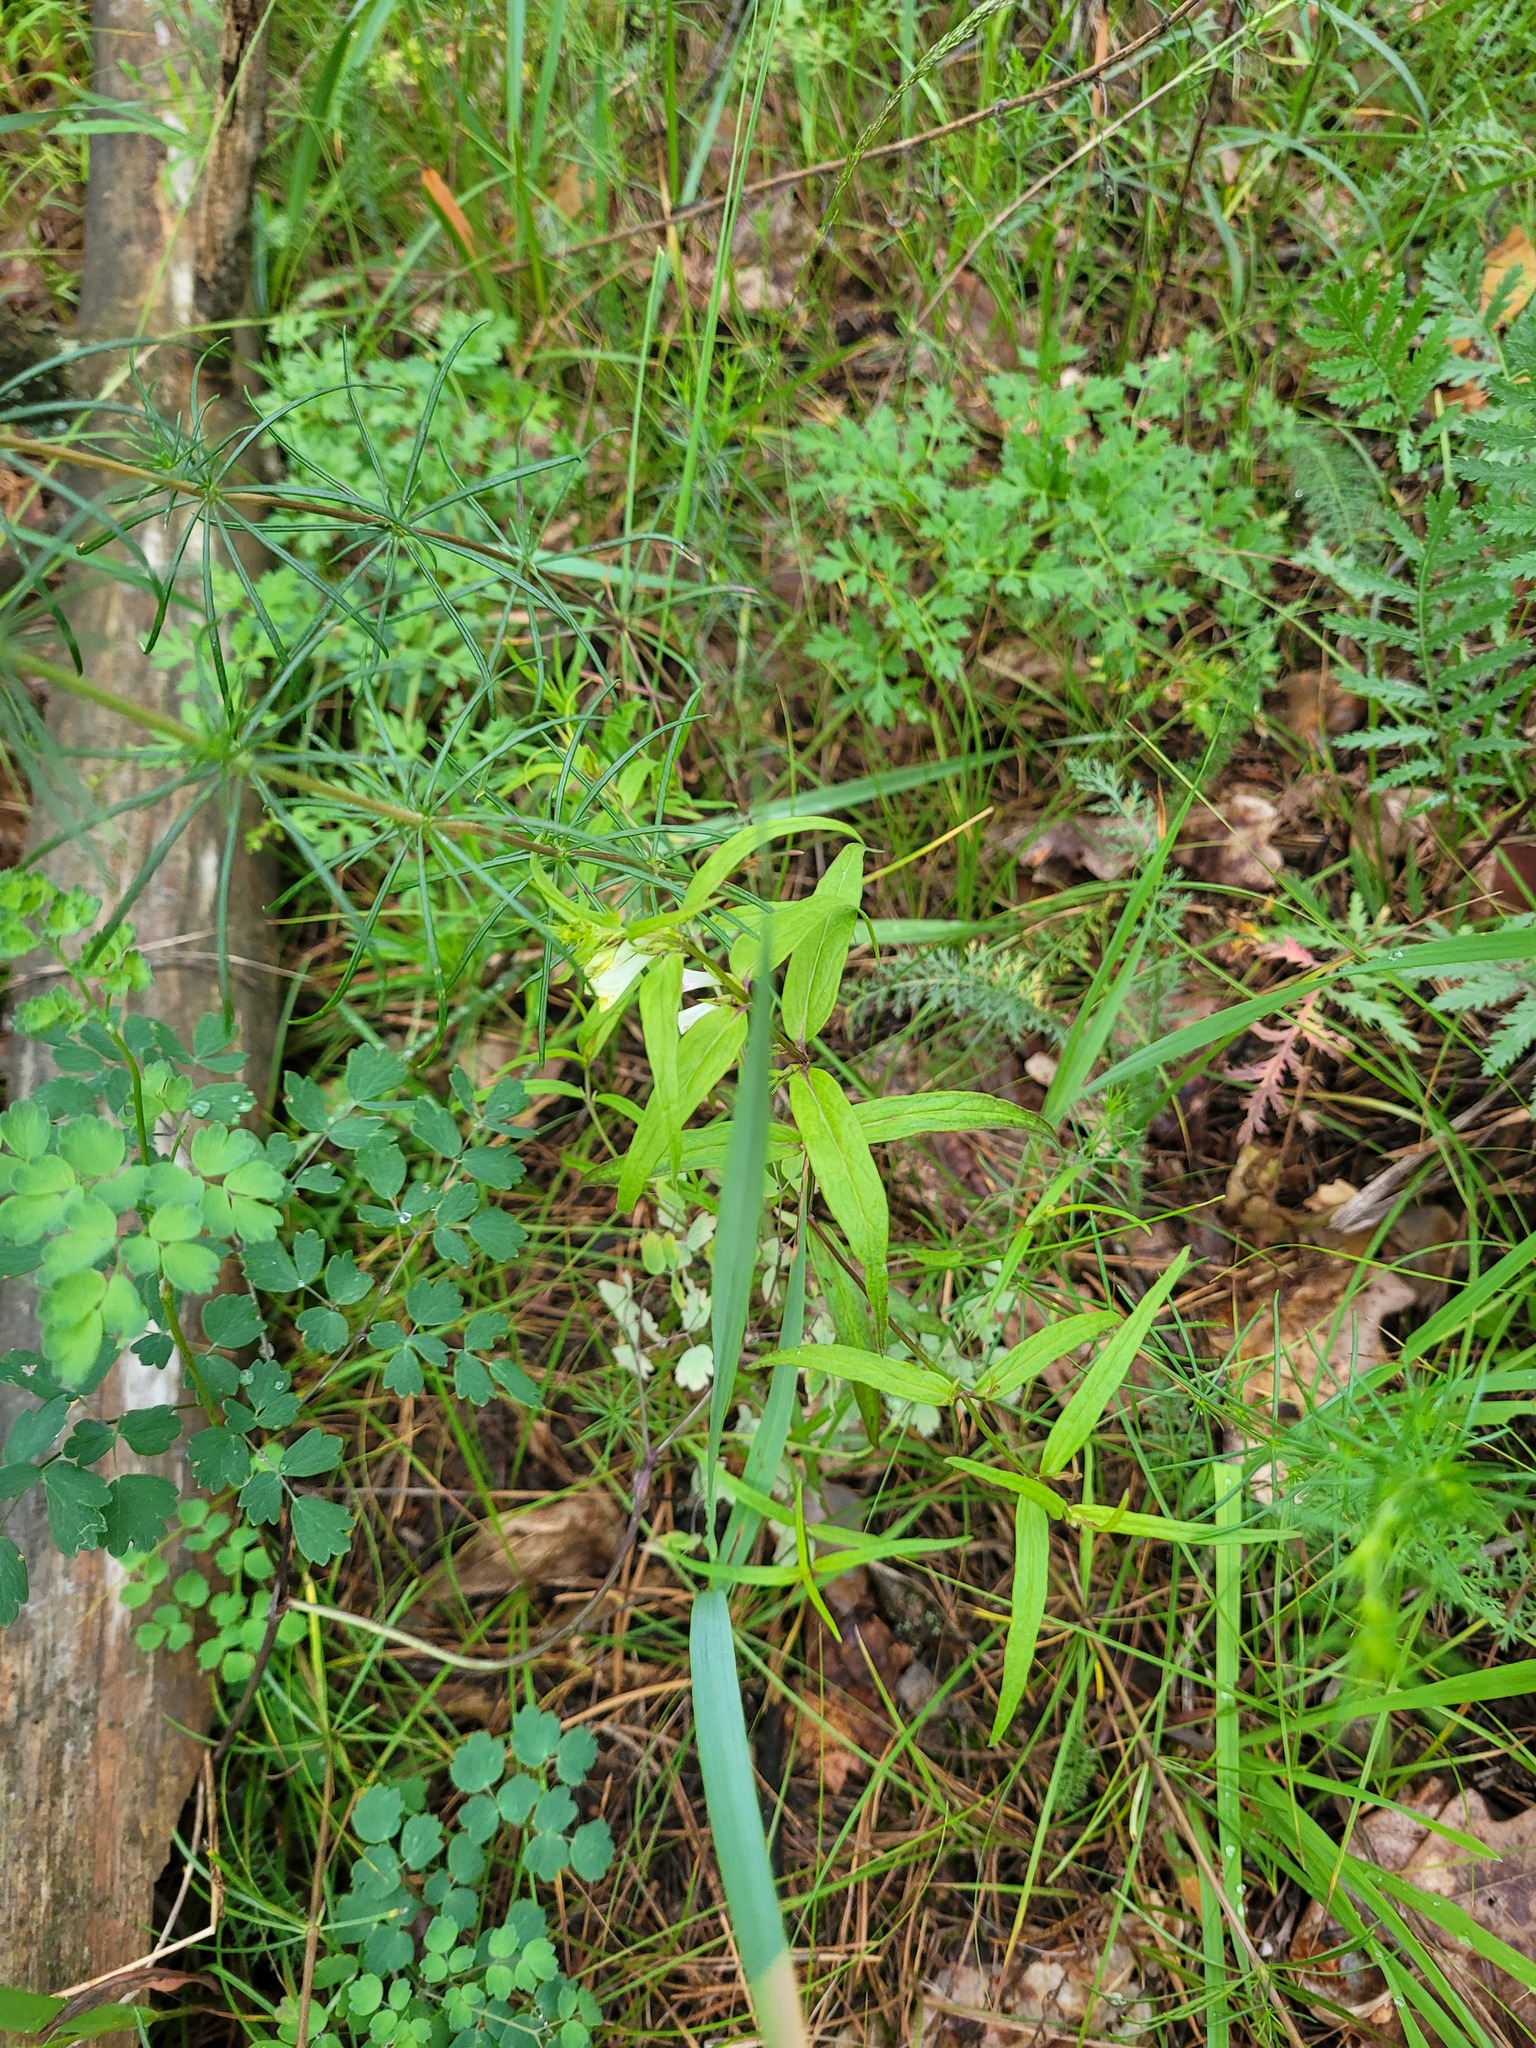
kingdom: Plantae
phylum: Tracheophyta
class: Magnoliopsida
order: Lamiales
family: Orobanchaceae
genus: Melampyrum
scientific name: Melampyrum pratense
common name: Common cow-wheat
